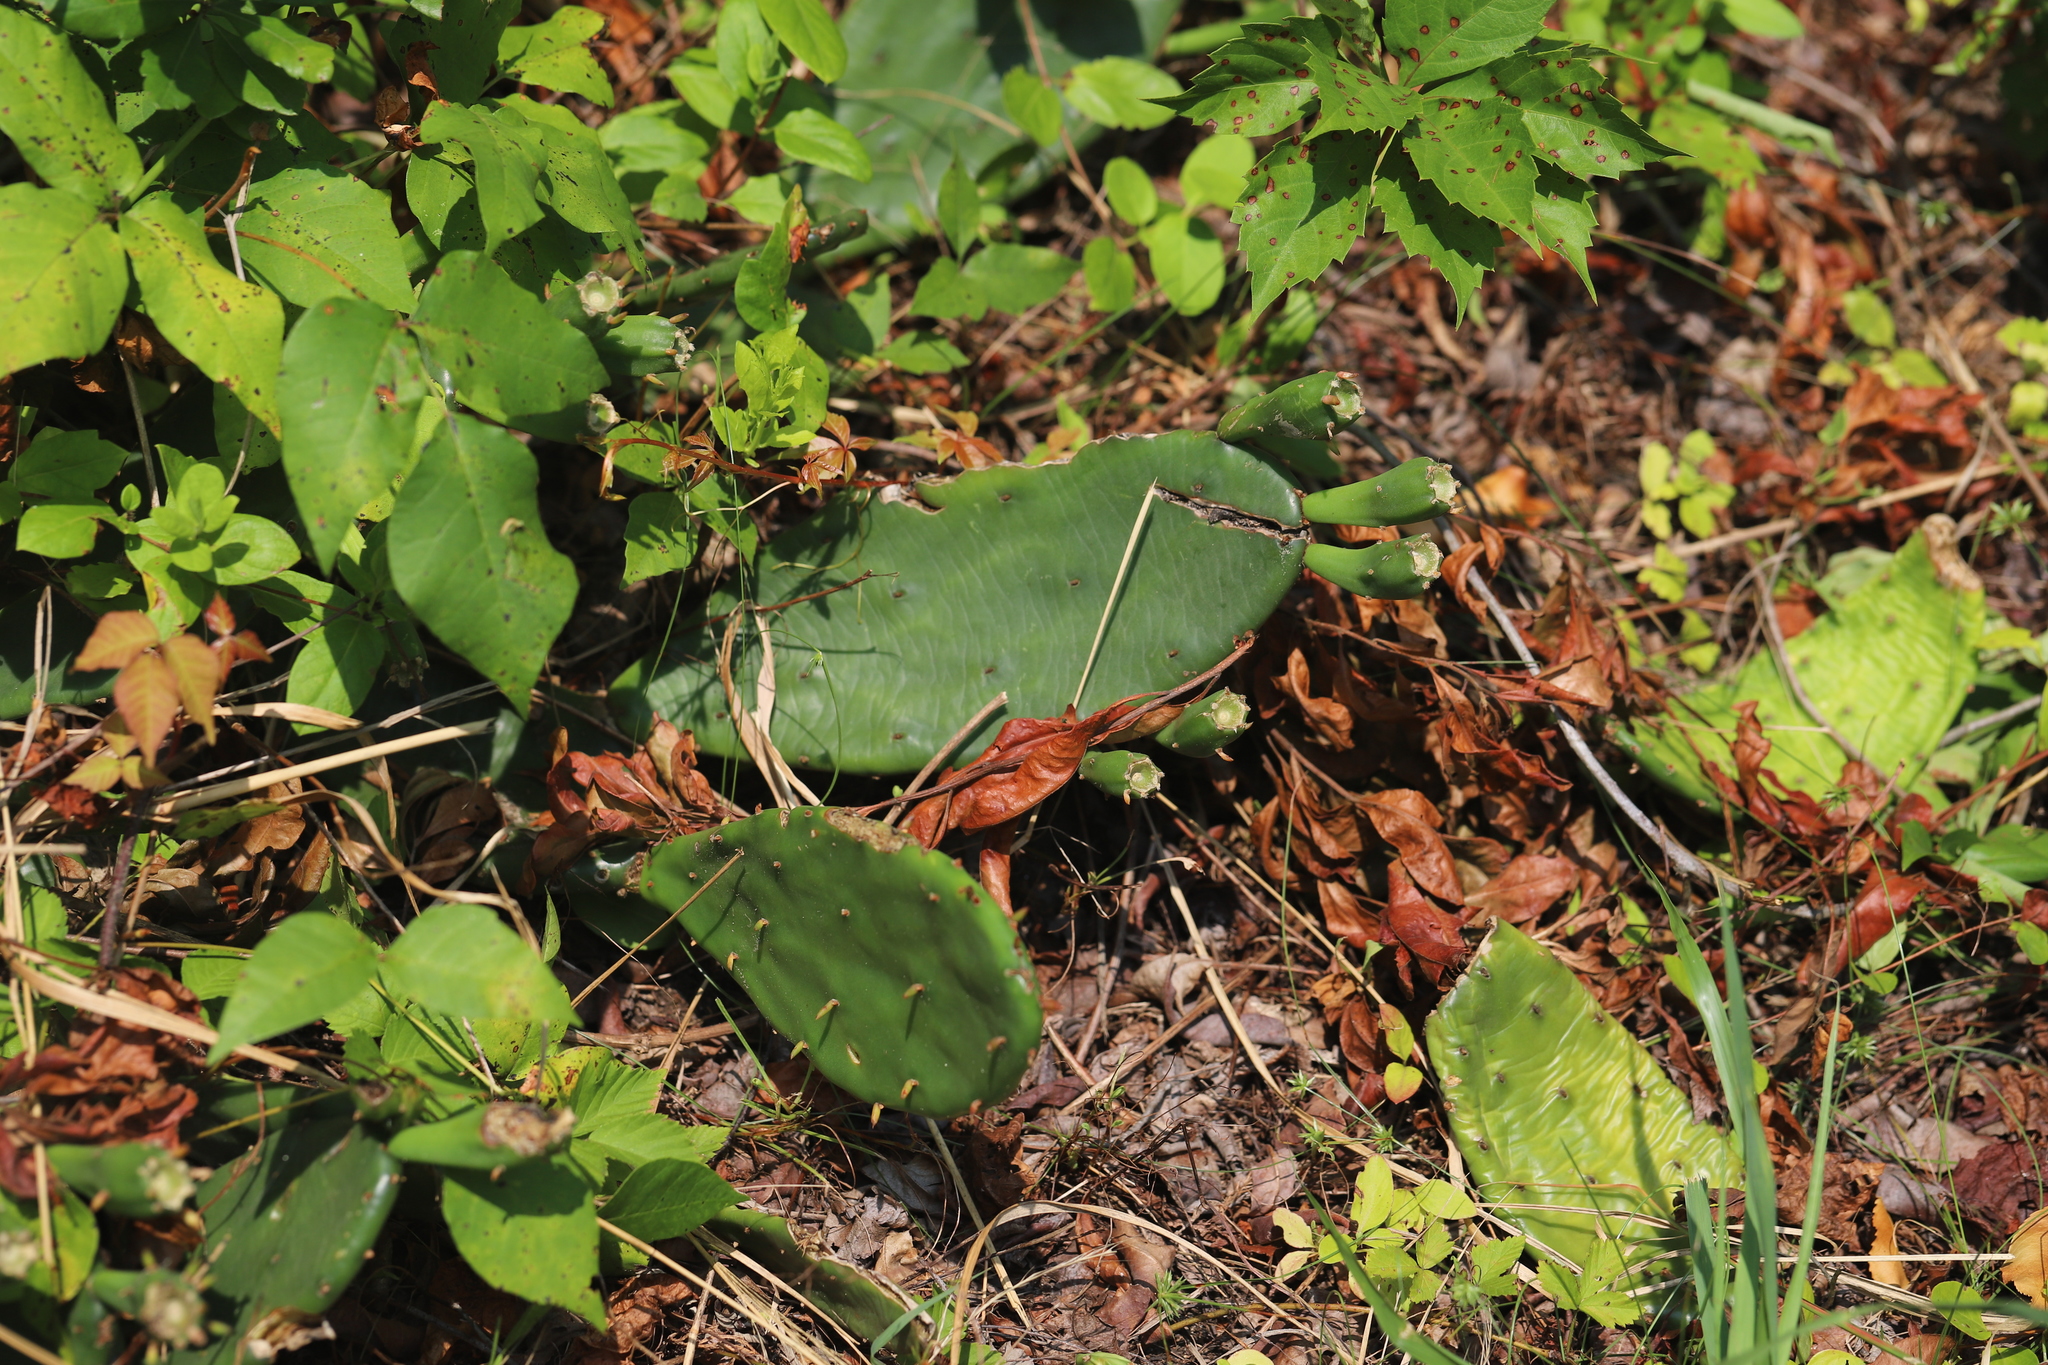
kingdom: Plantae
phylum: Tracheophyta
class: Magnoliopsida
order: Caryophyllales
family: Cactaceae
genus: Opuntia
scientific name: Opuntia humifusa
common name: Eastern prickly-pear
